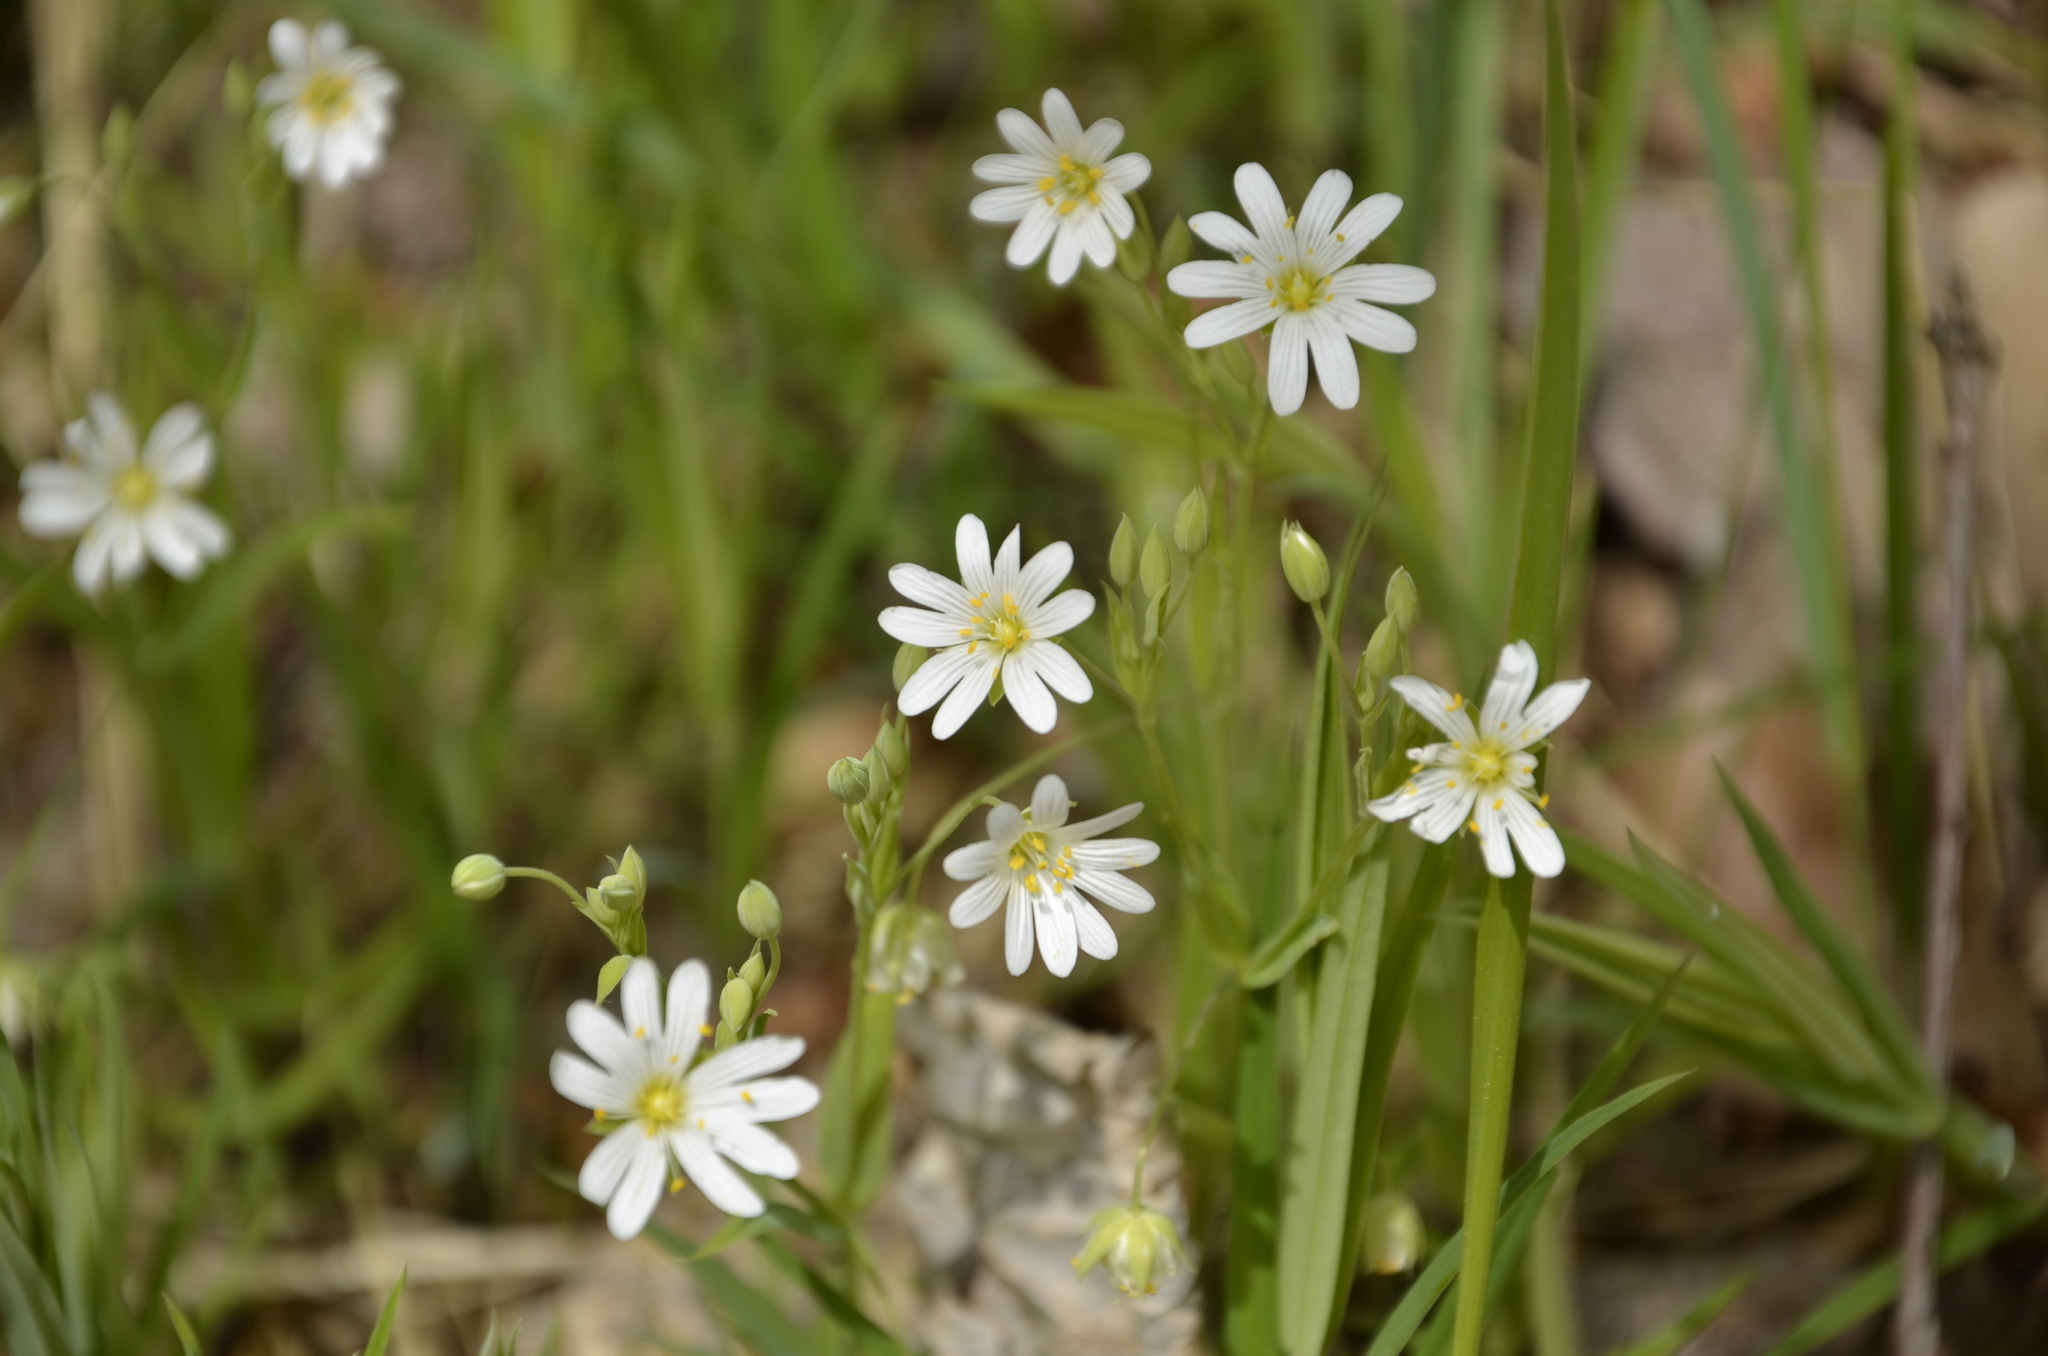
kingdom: Plantae
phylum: Tracheophyta
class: Magnoliopsida
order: Caryophyllales
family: Caryophyllaceae
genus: Rabelera
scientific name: Rabelera holostea
